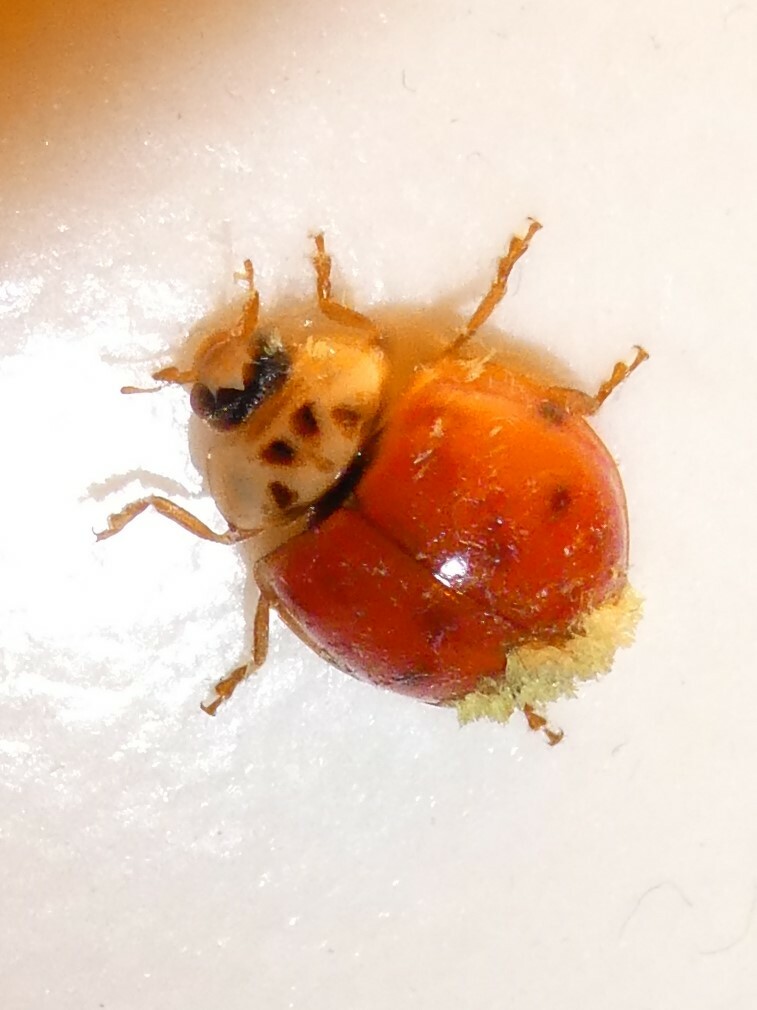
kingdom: Animalia
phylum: Arthropoda
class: Insecta
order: Coleoptera
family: Coccinellidae
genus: Harmonia
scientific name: Harmonia axyridis
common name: Harlequin ladybird
